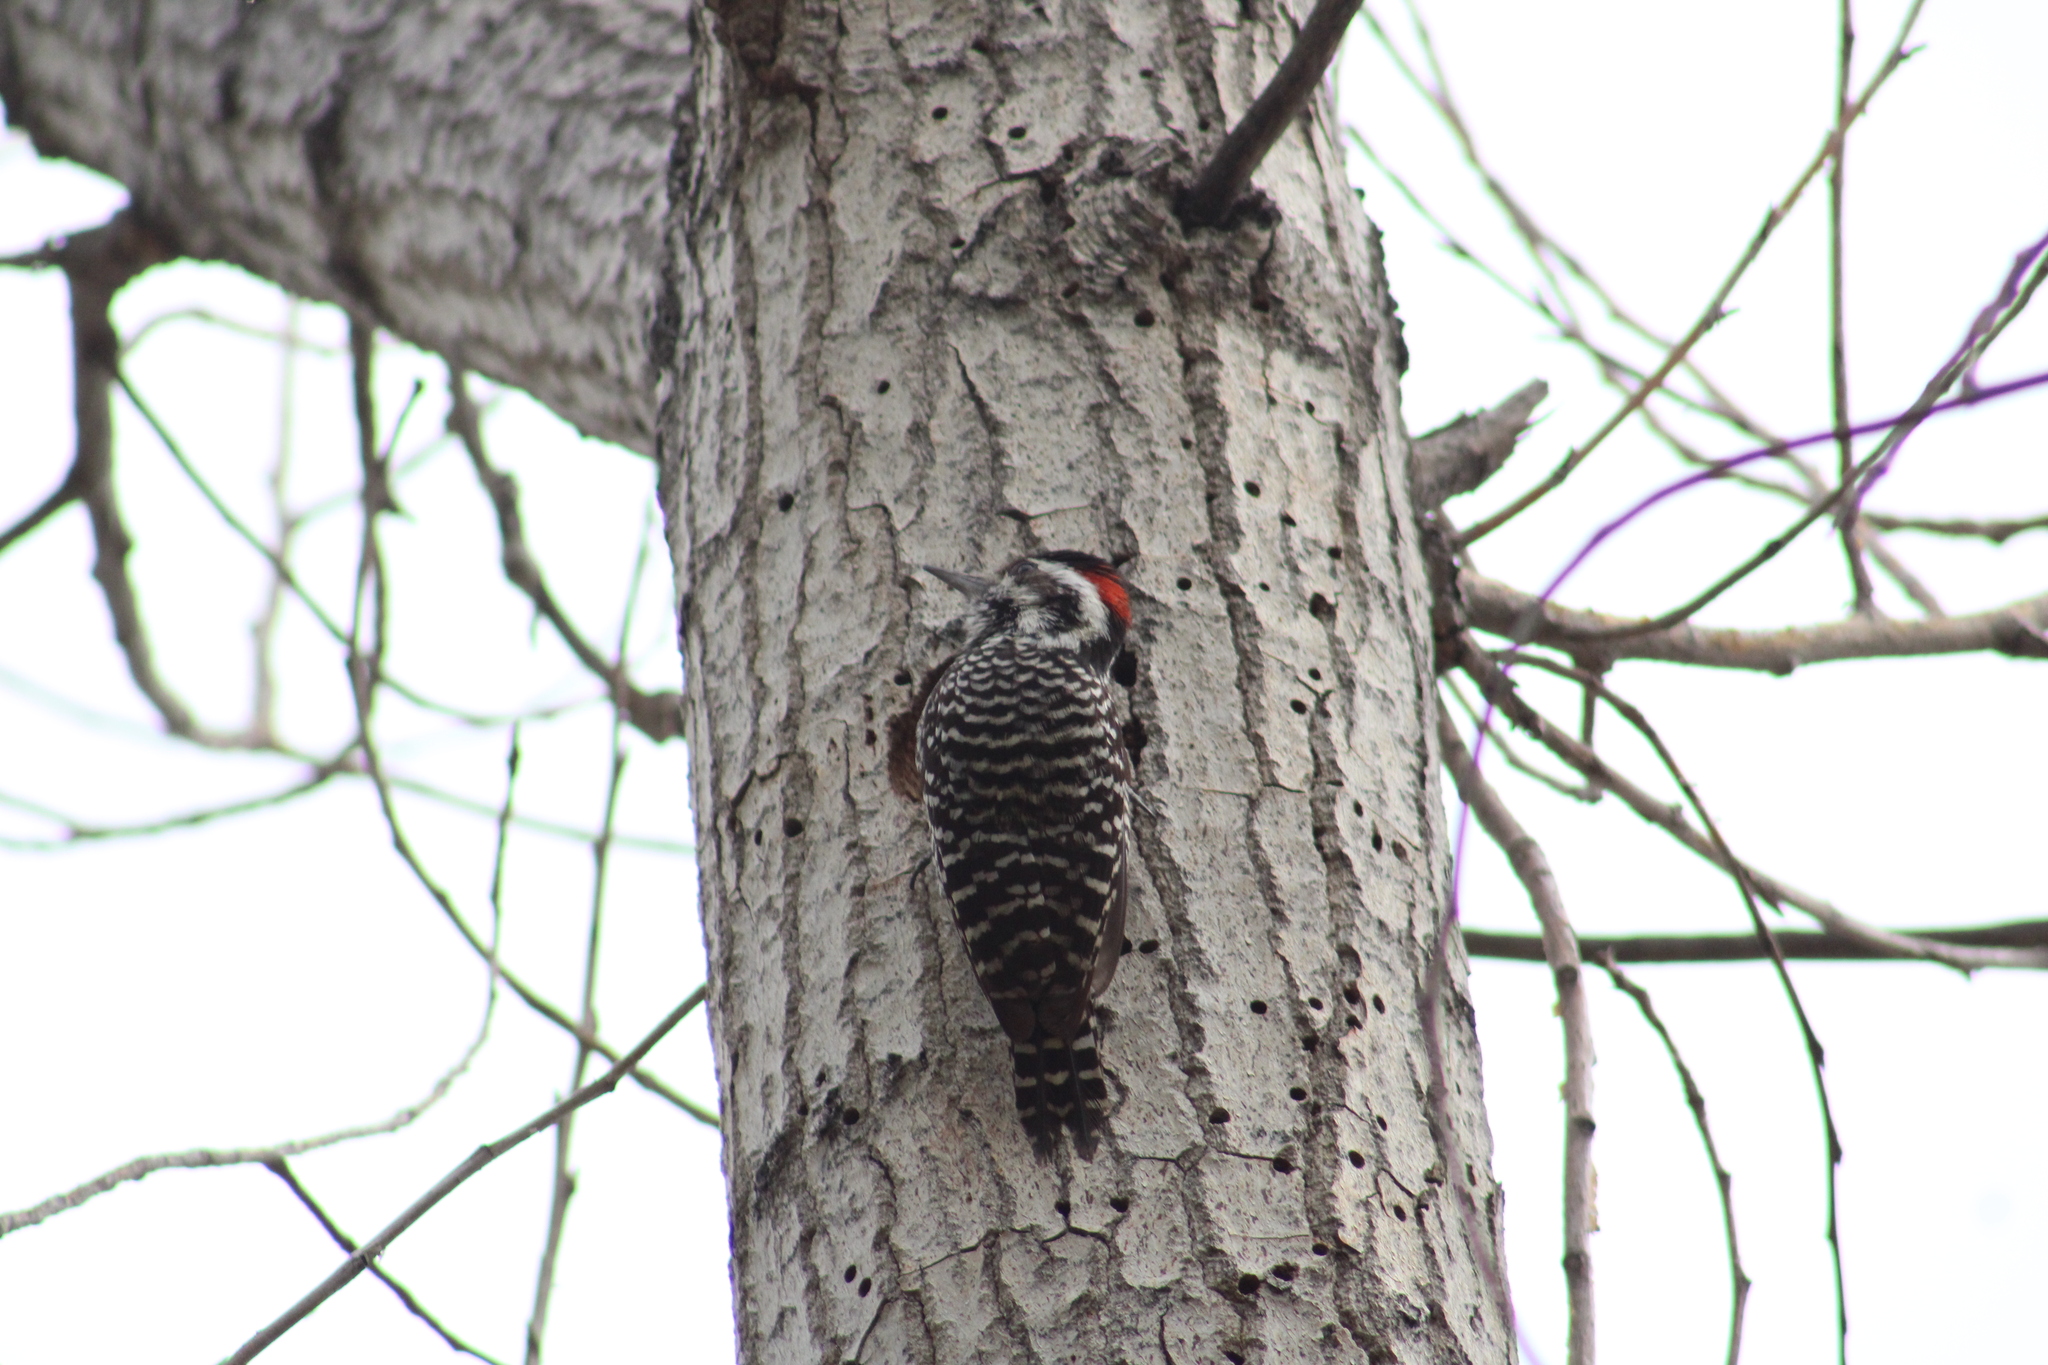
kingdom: Animalia
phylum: Chordata
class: Aves
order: Piciformes
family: Picidae
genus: Veniliornis
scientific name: Veniliornis lignarius
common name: Striped woodpecker
